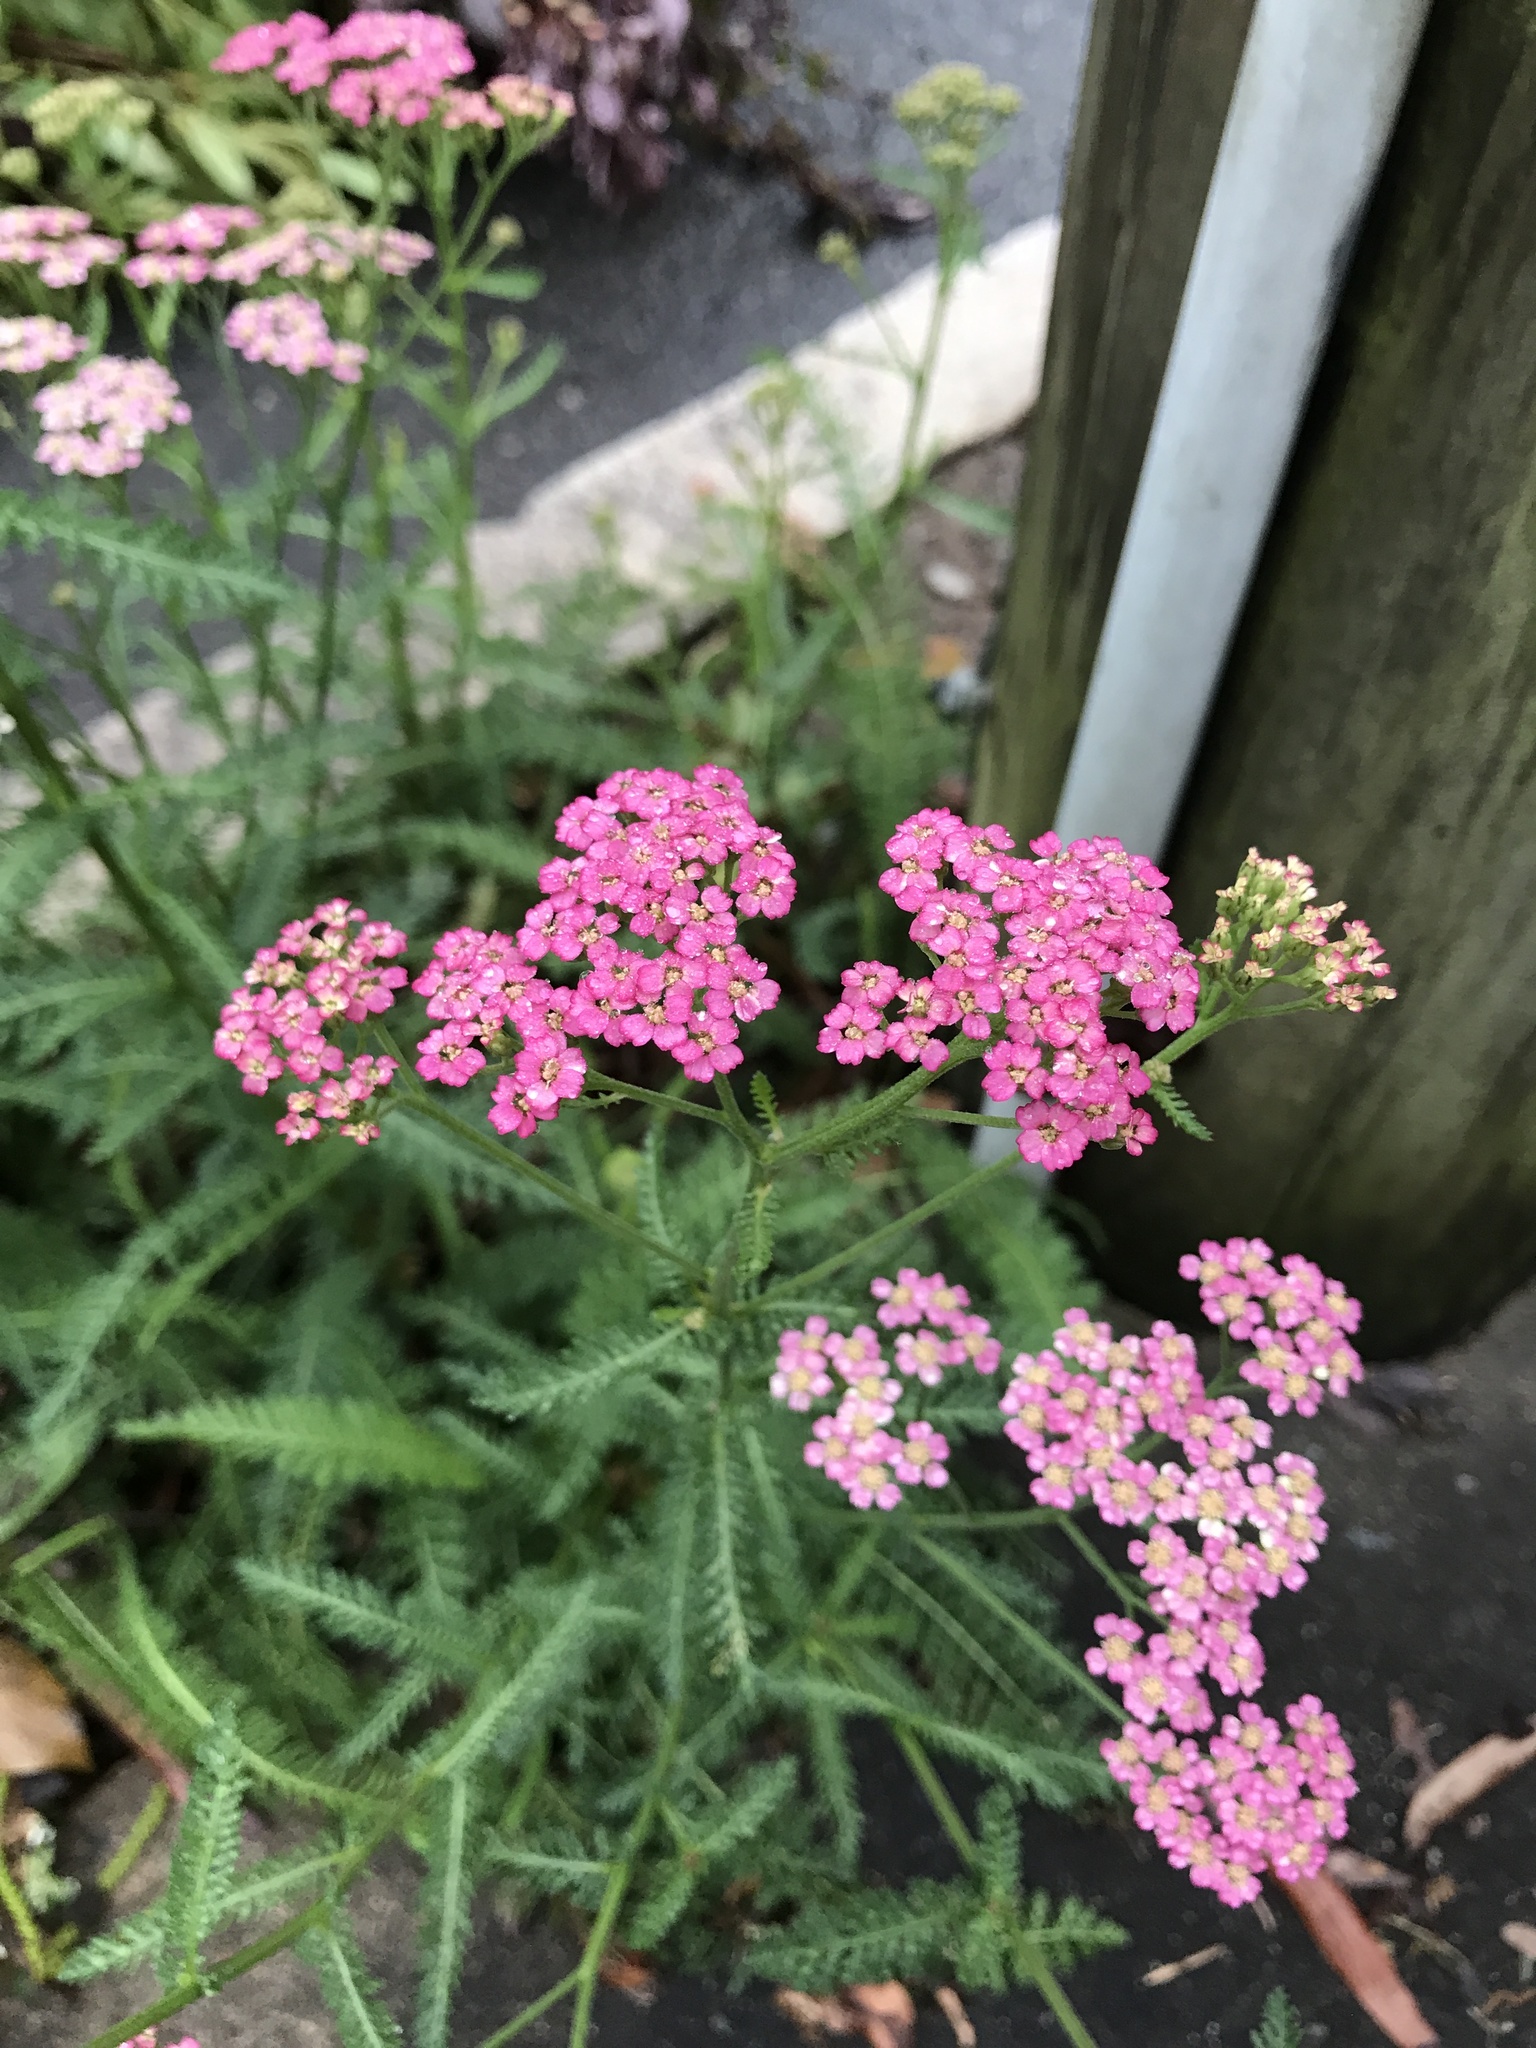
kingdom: Plantae
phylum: Tracheophyta
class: Magnoliopsida
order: Asterales
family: Asteraceae
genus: Achillea
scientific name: Achillea millefolium
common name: Yarrow
